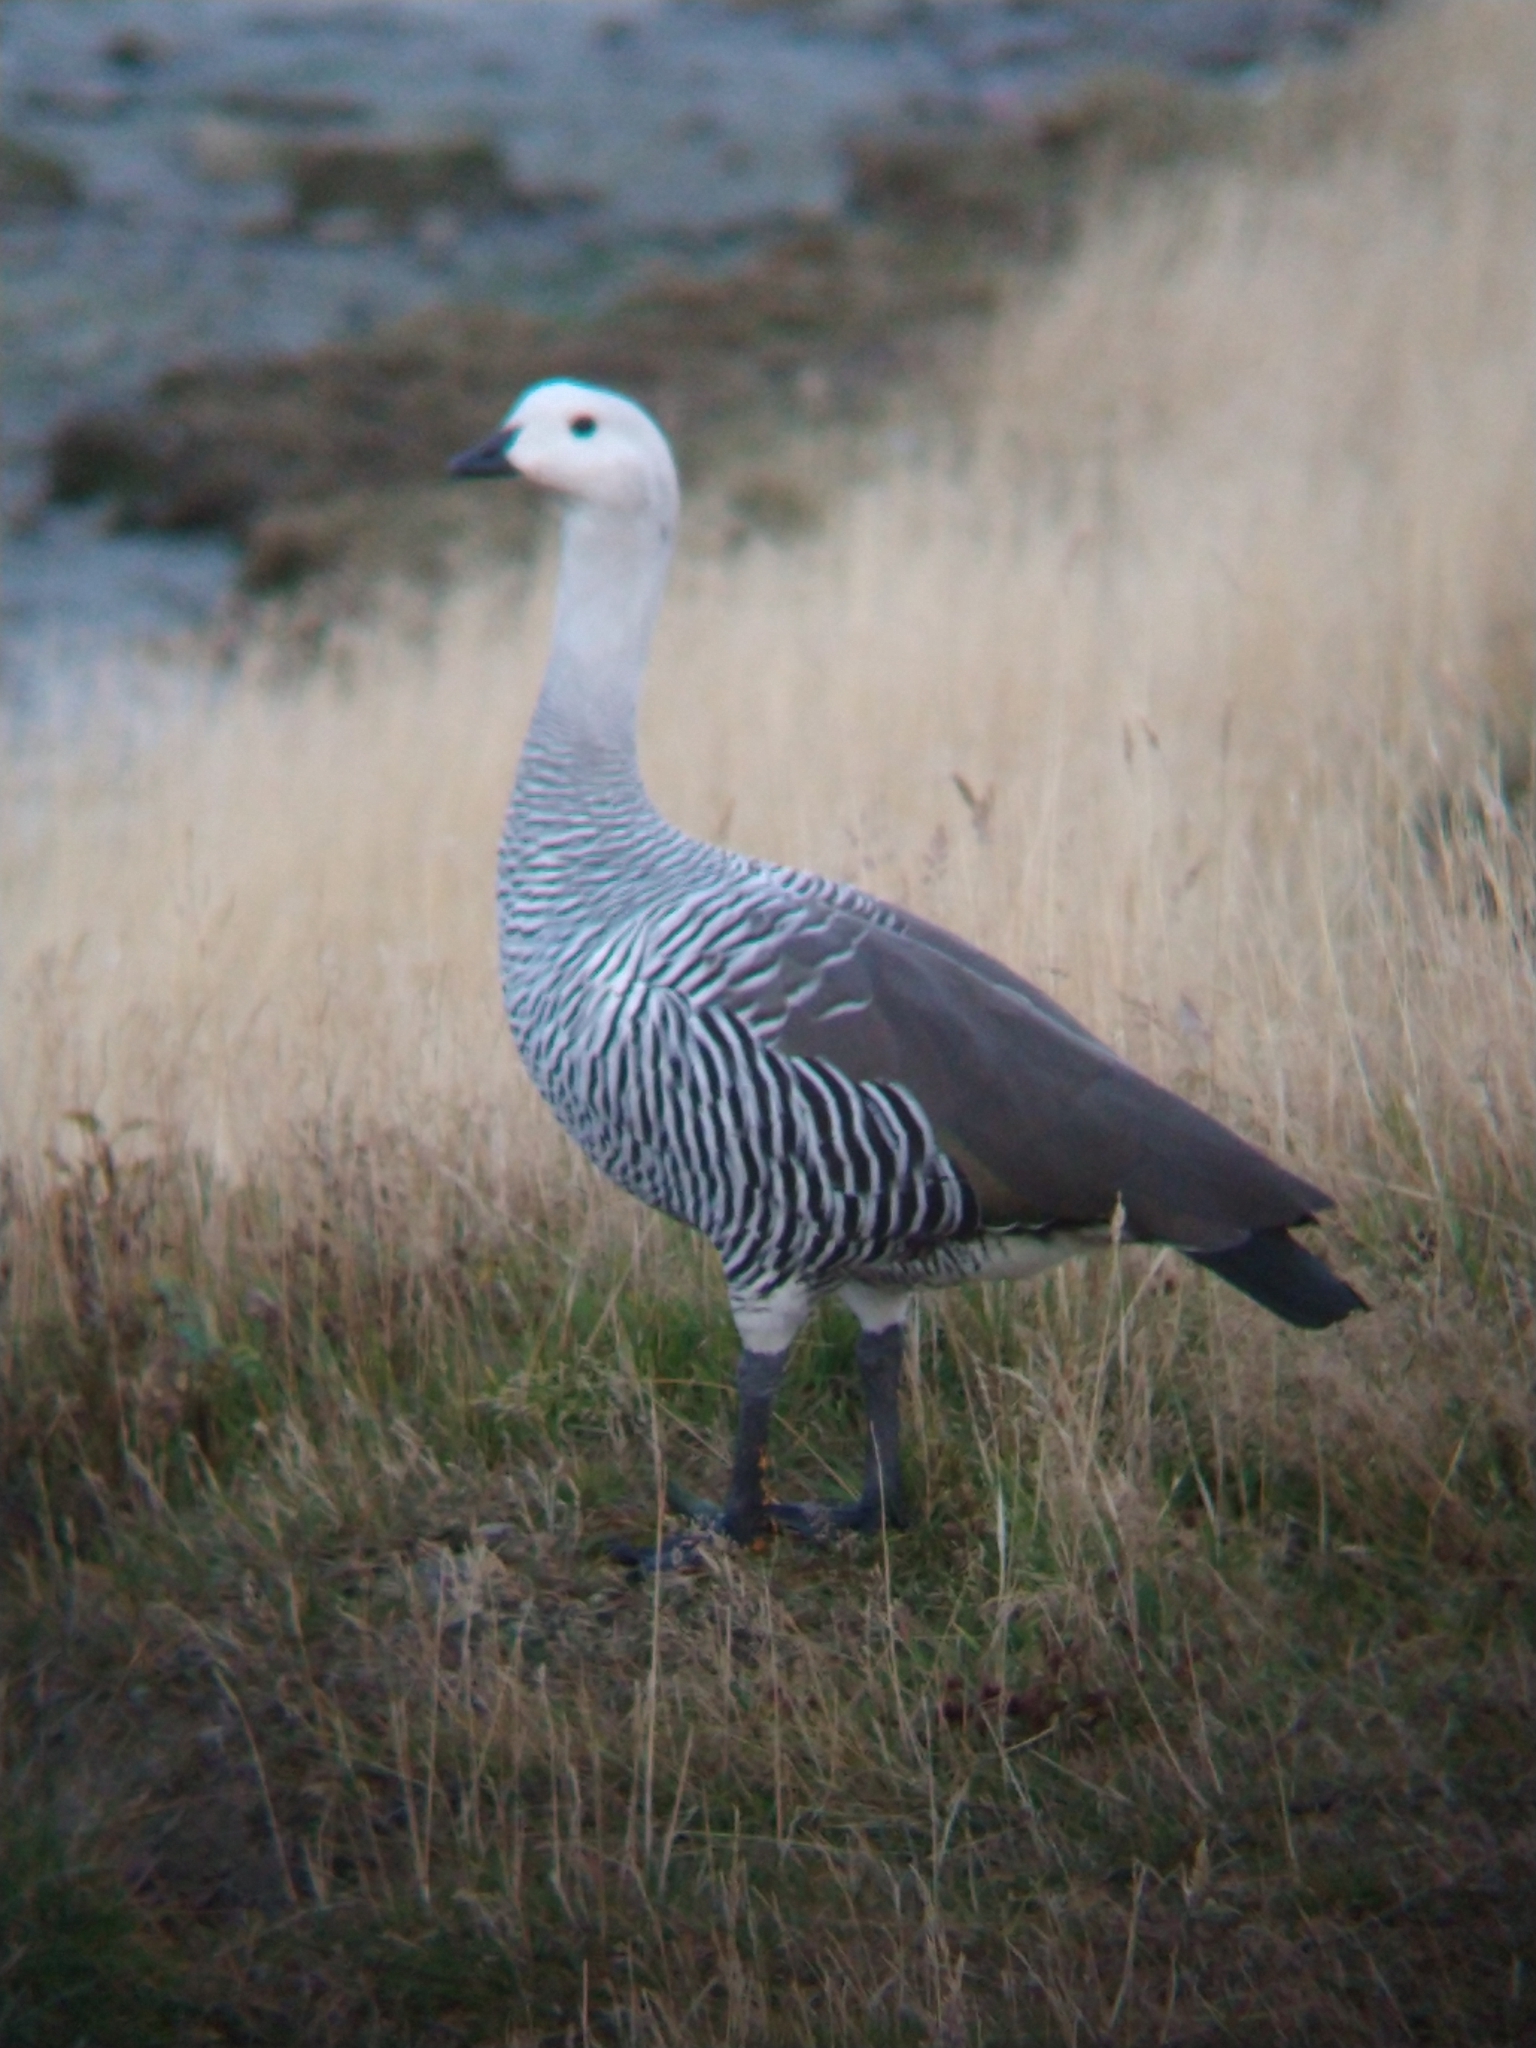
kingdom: Animalia
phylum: Chordata
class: Aves
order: Anseriformes
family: Anatidae
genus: Chloephaga
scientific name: Chloephaga picta
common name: Upland goose
